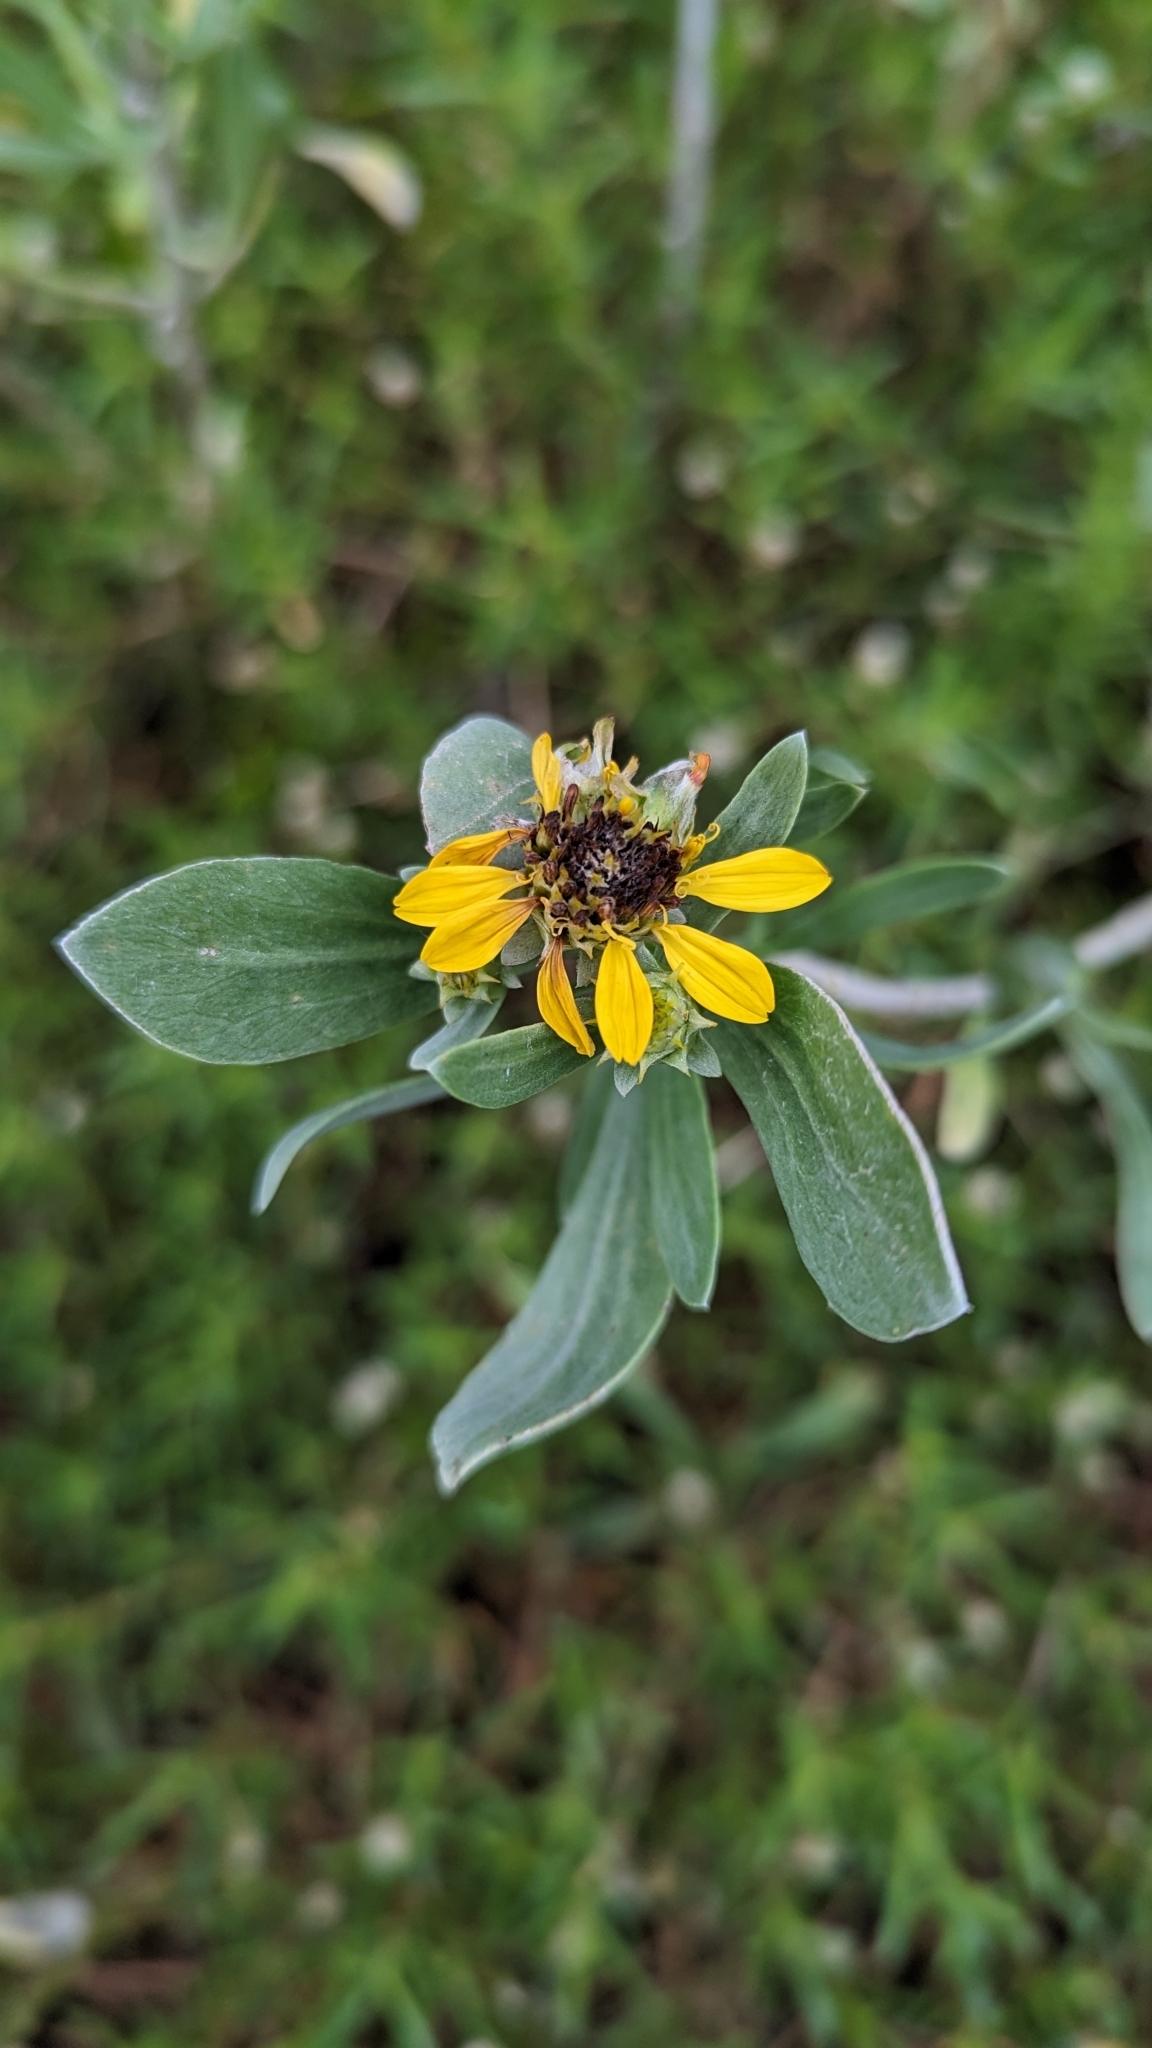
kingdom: Plantae
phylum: Tracheophyta
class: Magnoliopsida
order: Asterales
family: Asteraceae
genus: Borrichia
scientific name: Borrichia frutescens
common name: Sea oxeye
